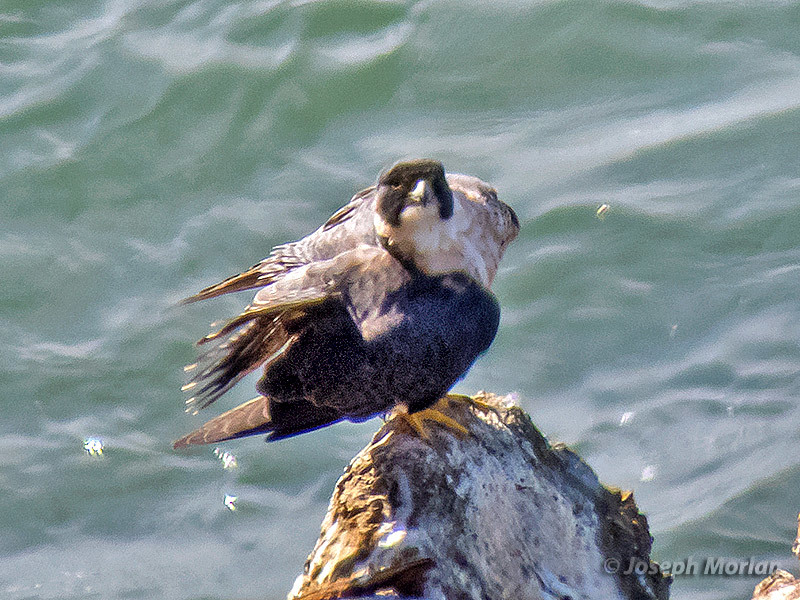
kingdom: Animalia
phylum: Chordata
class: Aves
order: Falconiformes
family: Falconidae
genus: Falco
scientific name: Falco peregrinus
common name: Peregrine falcon
